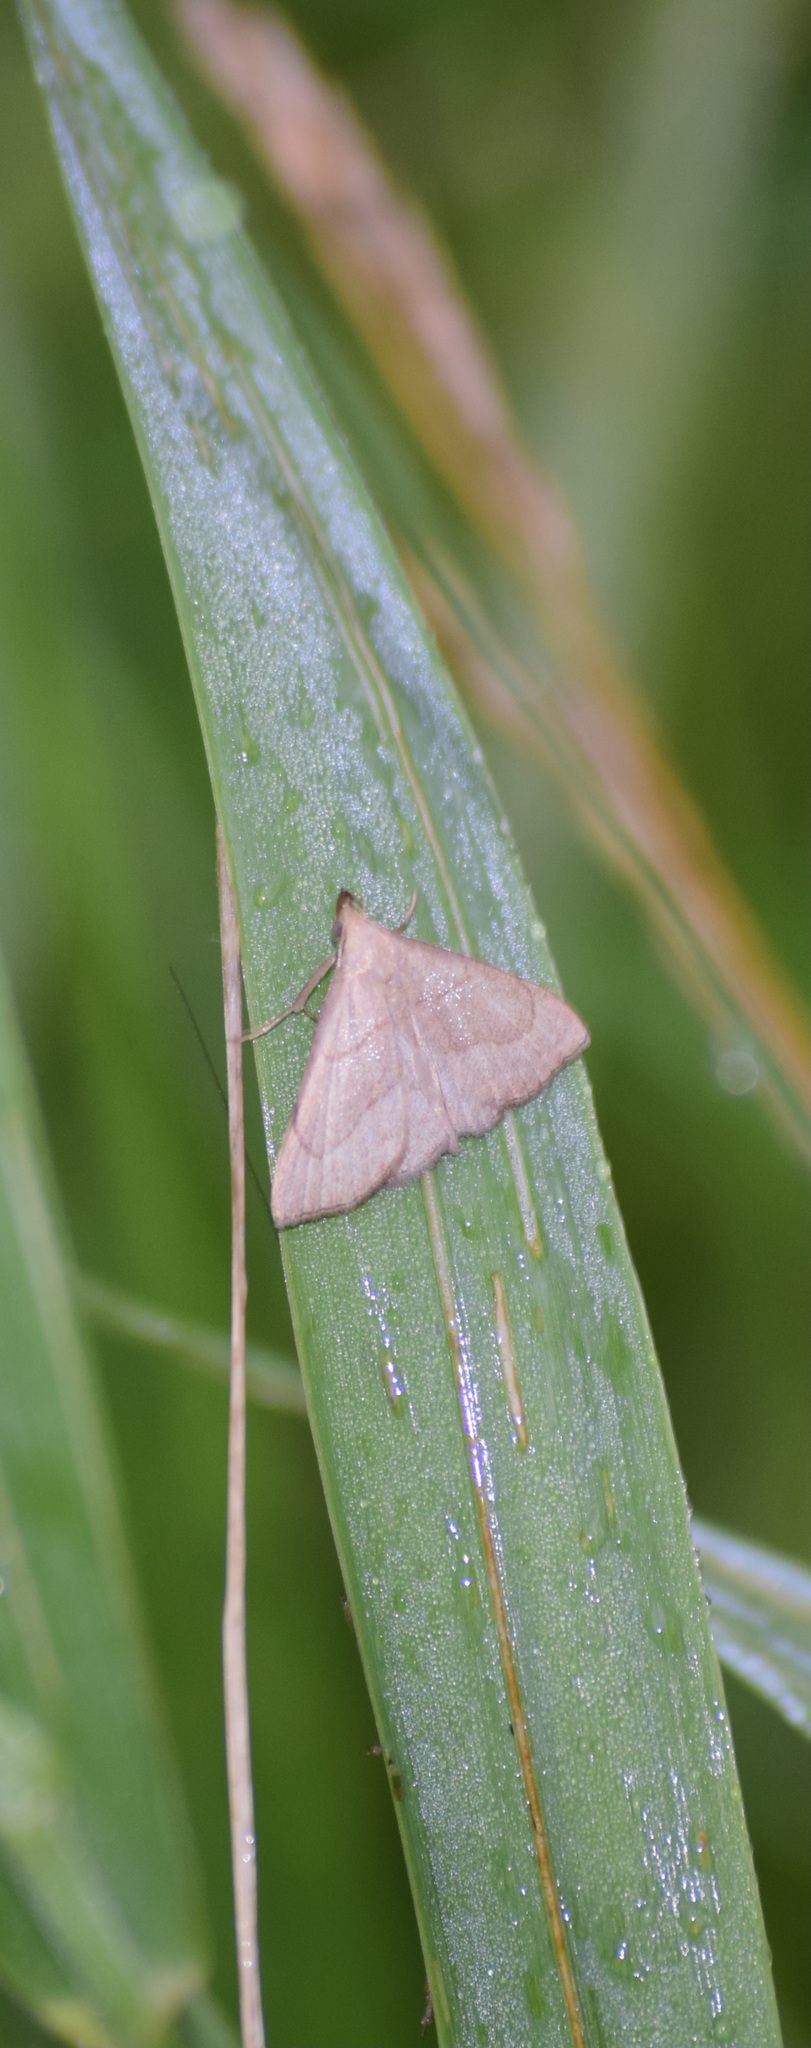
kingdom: Animalia
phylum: Arthropoda
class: Insecta
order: Lepidoptera
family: Erebidae
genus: Macrochilo
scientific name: Macrochilo litophora
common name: Brown-lined owlet
